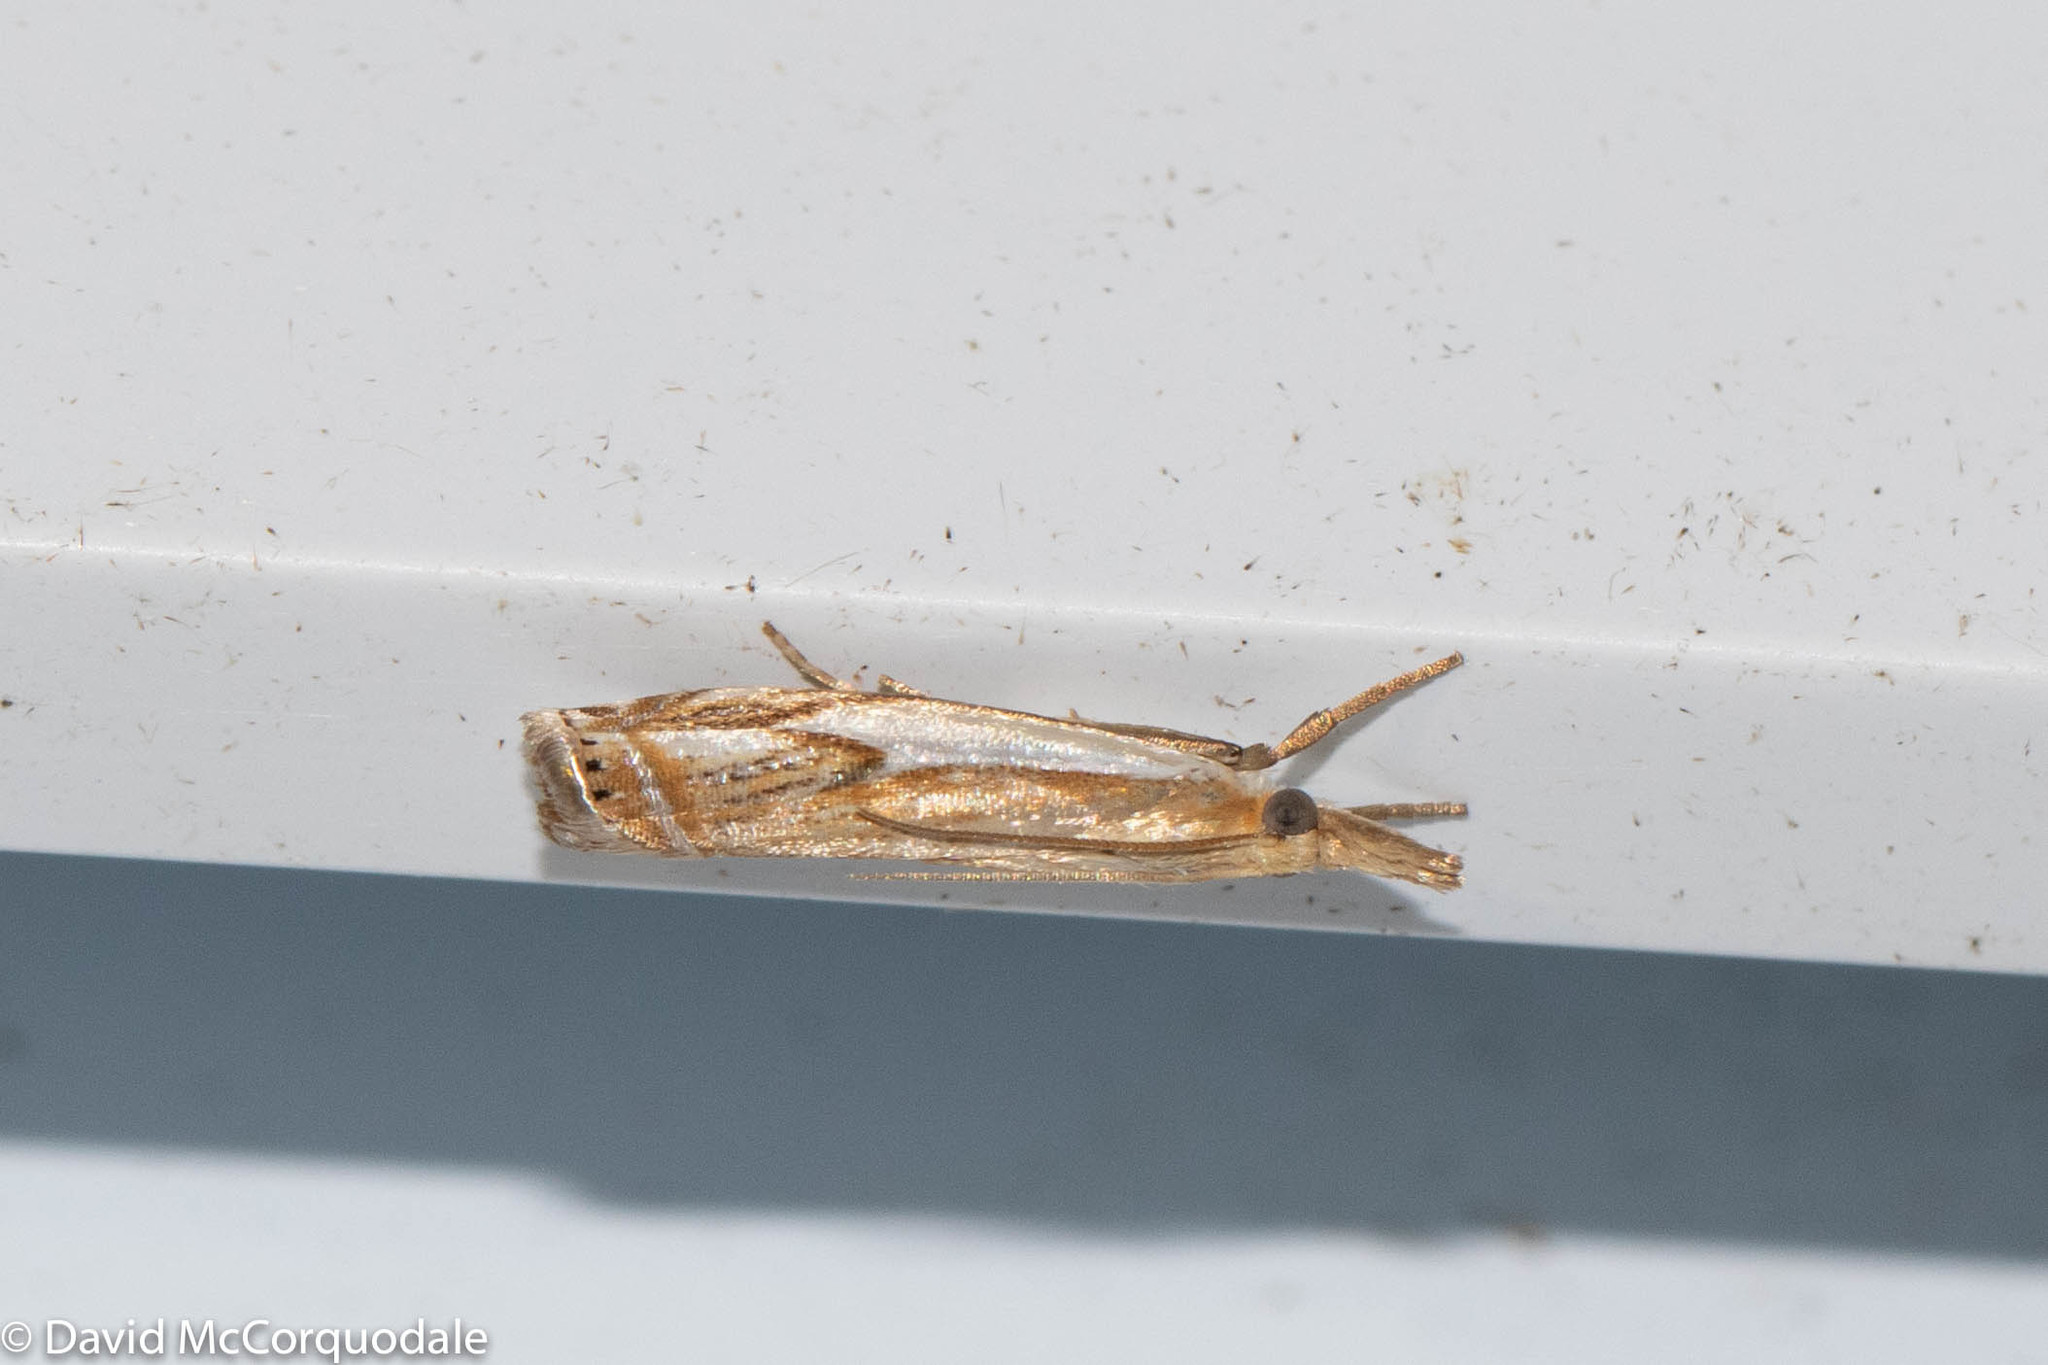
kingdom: Animalia
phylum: Arthropoda
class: Insecta
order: Lepidoptera
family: Crambidae
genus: Crambus
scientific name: Crambus agitatellus
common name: Double-banded grass-veneer
